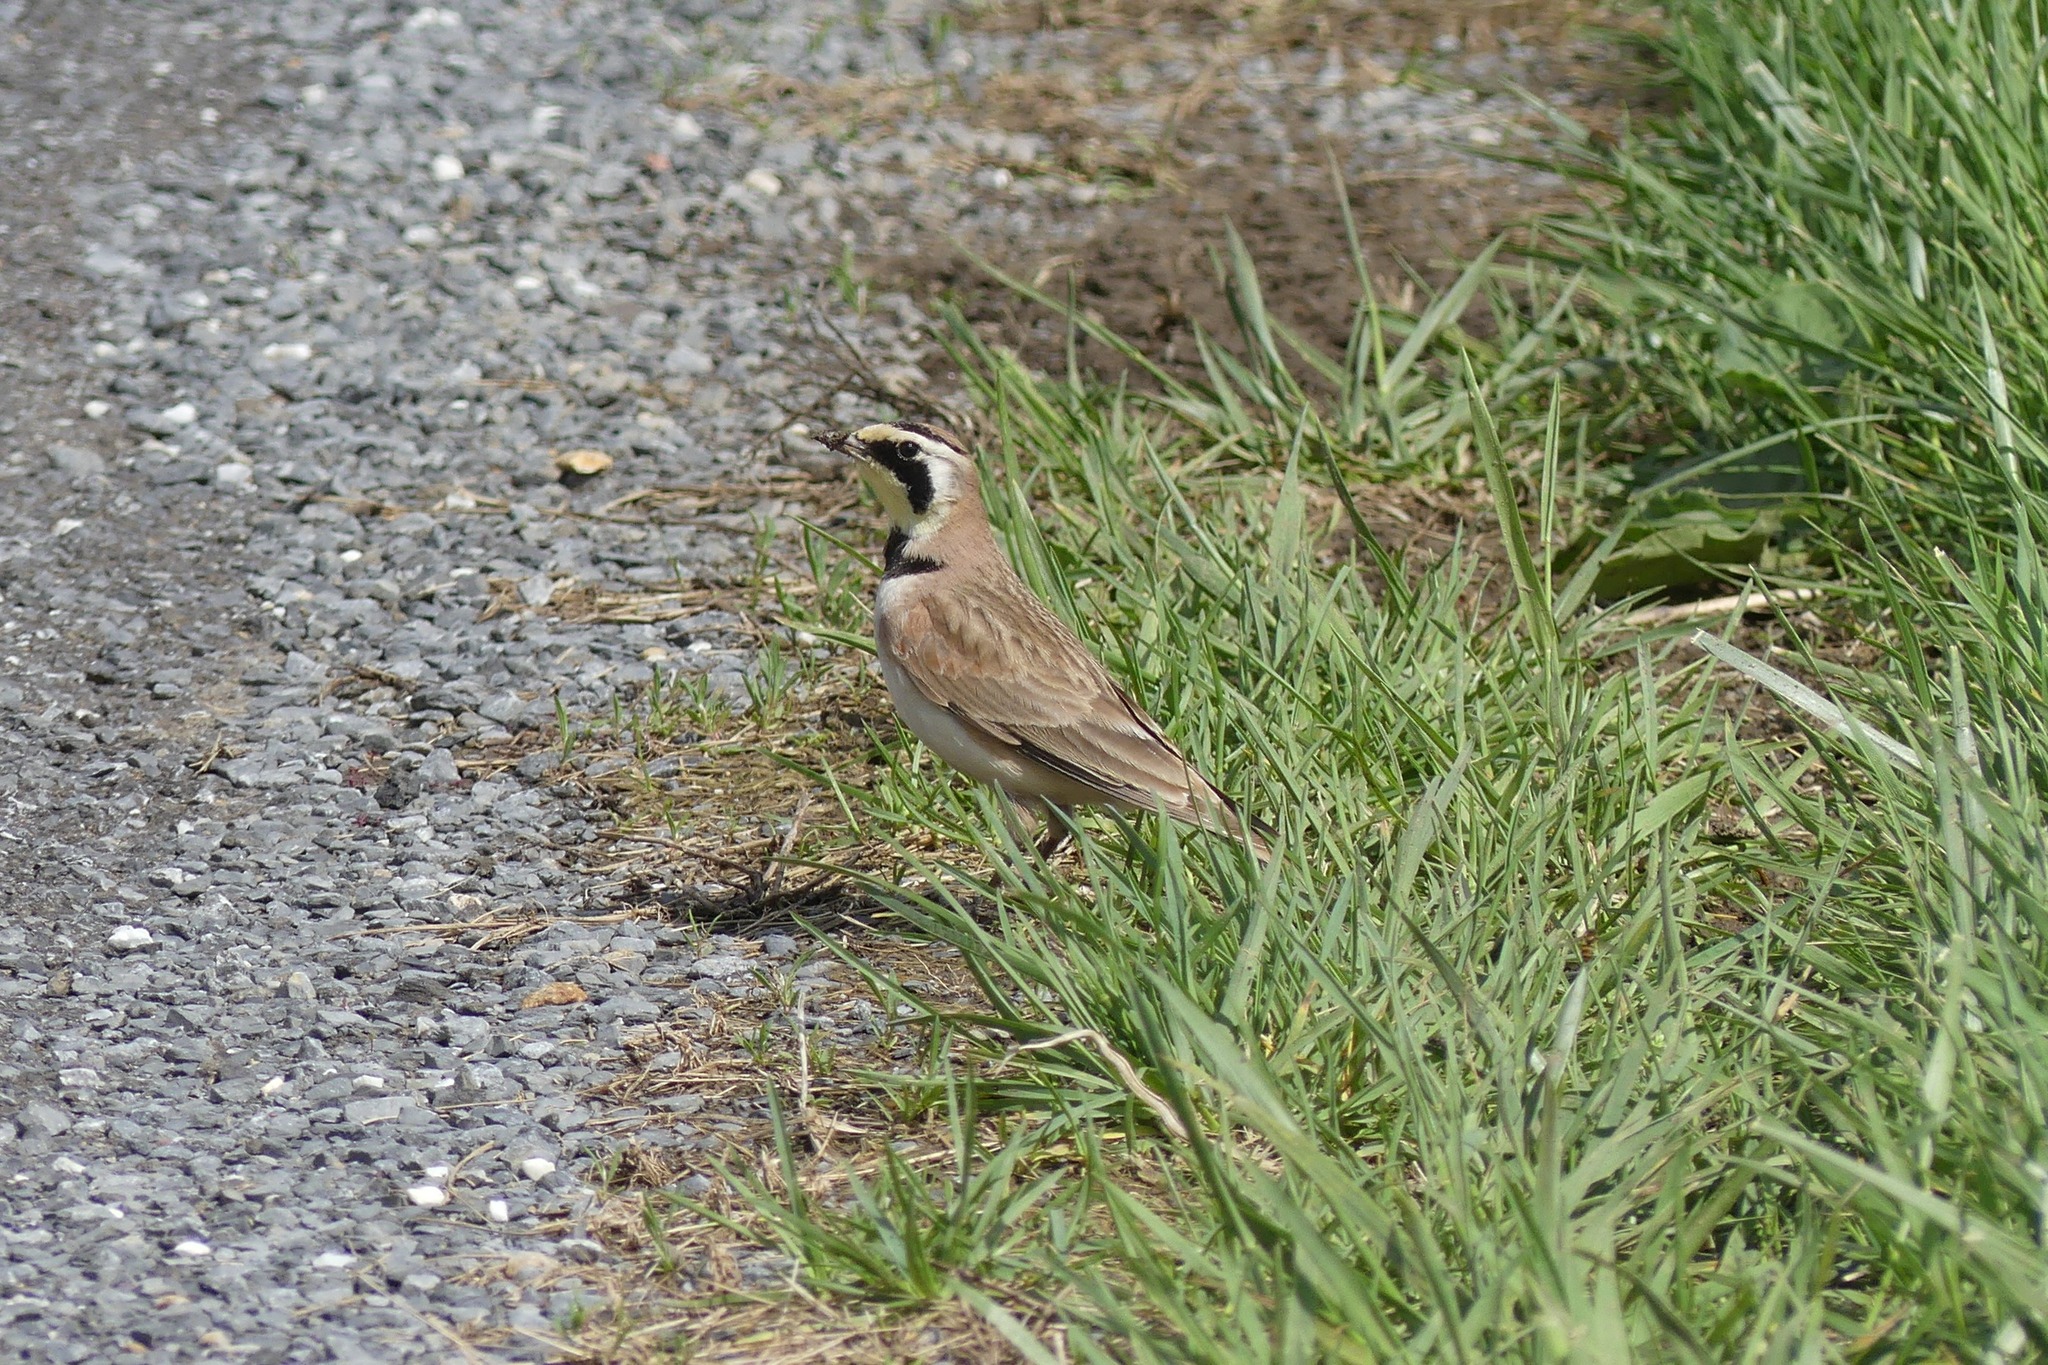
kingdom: Animalia
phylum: Chordata
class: Aves
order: Passeriformes
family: Alaudidae
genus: Eremophila
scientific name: Eremophila alpestris
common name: Horned lark
